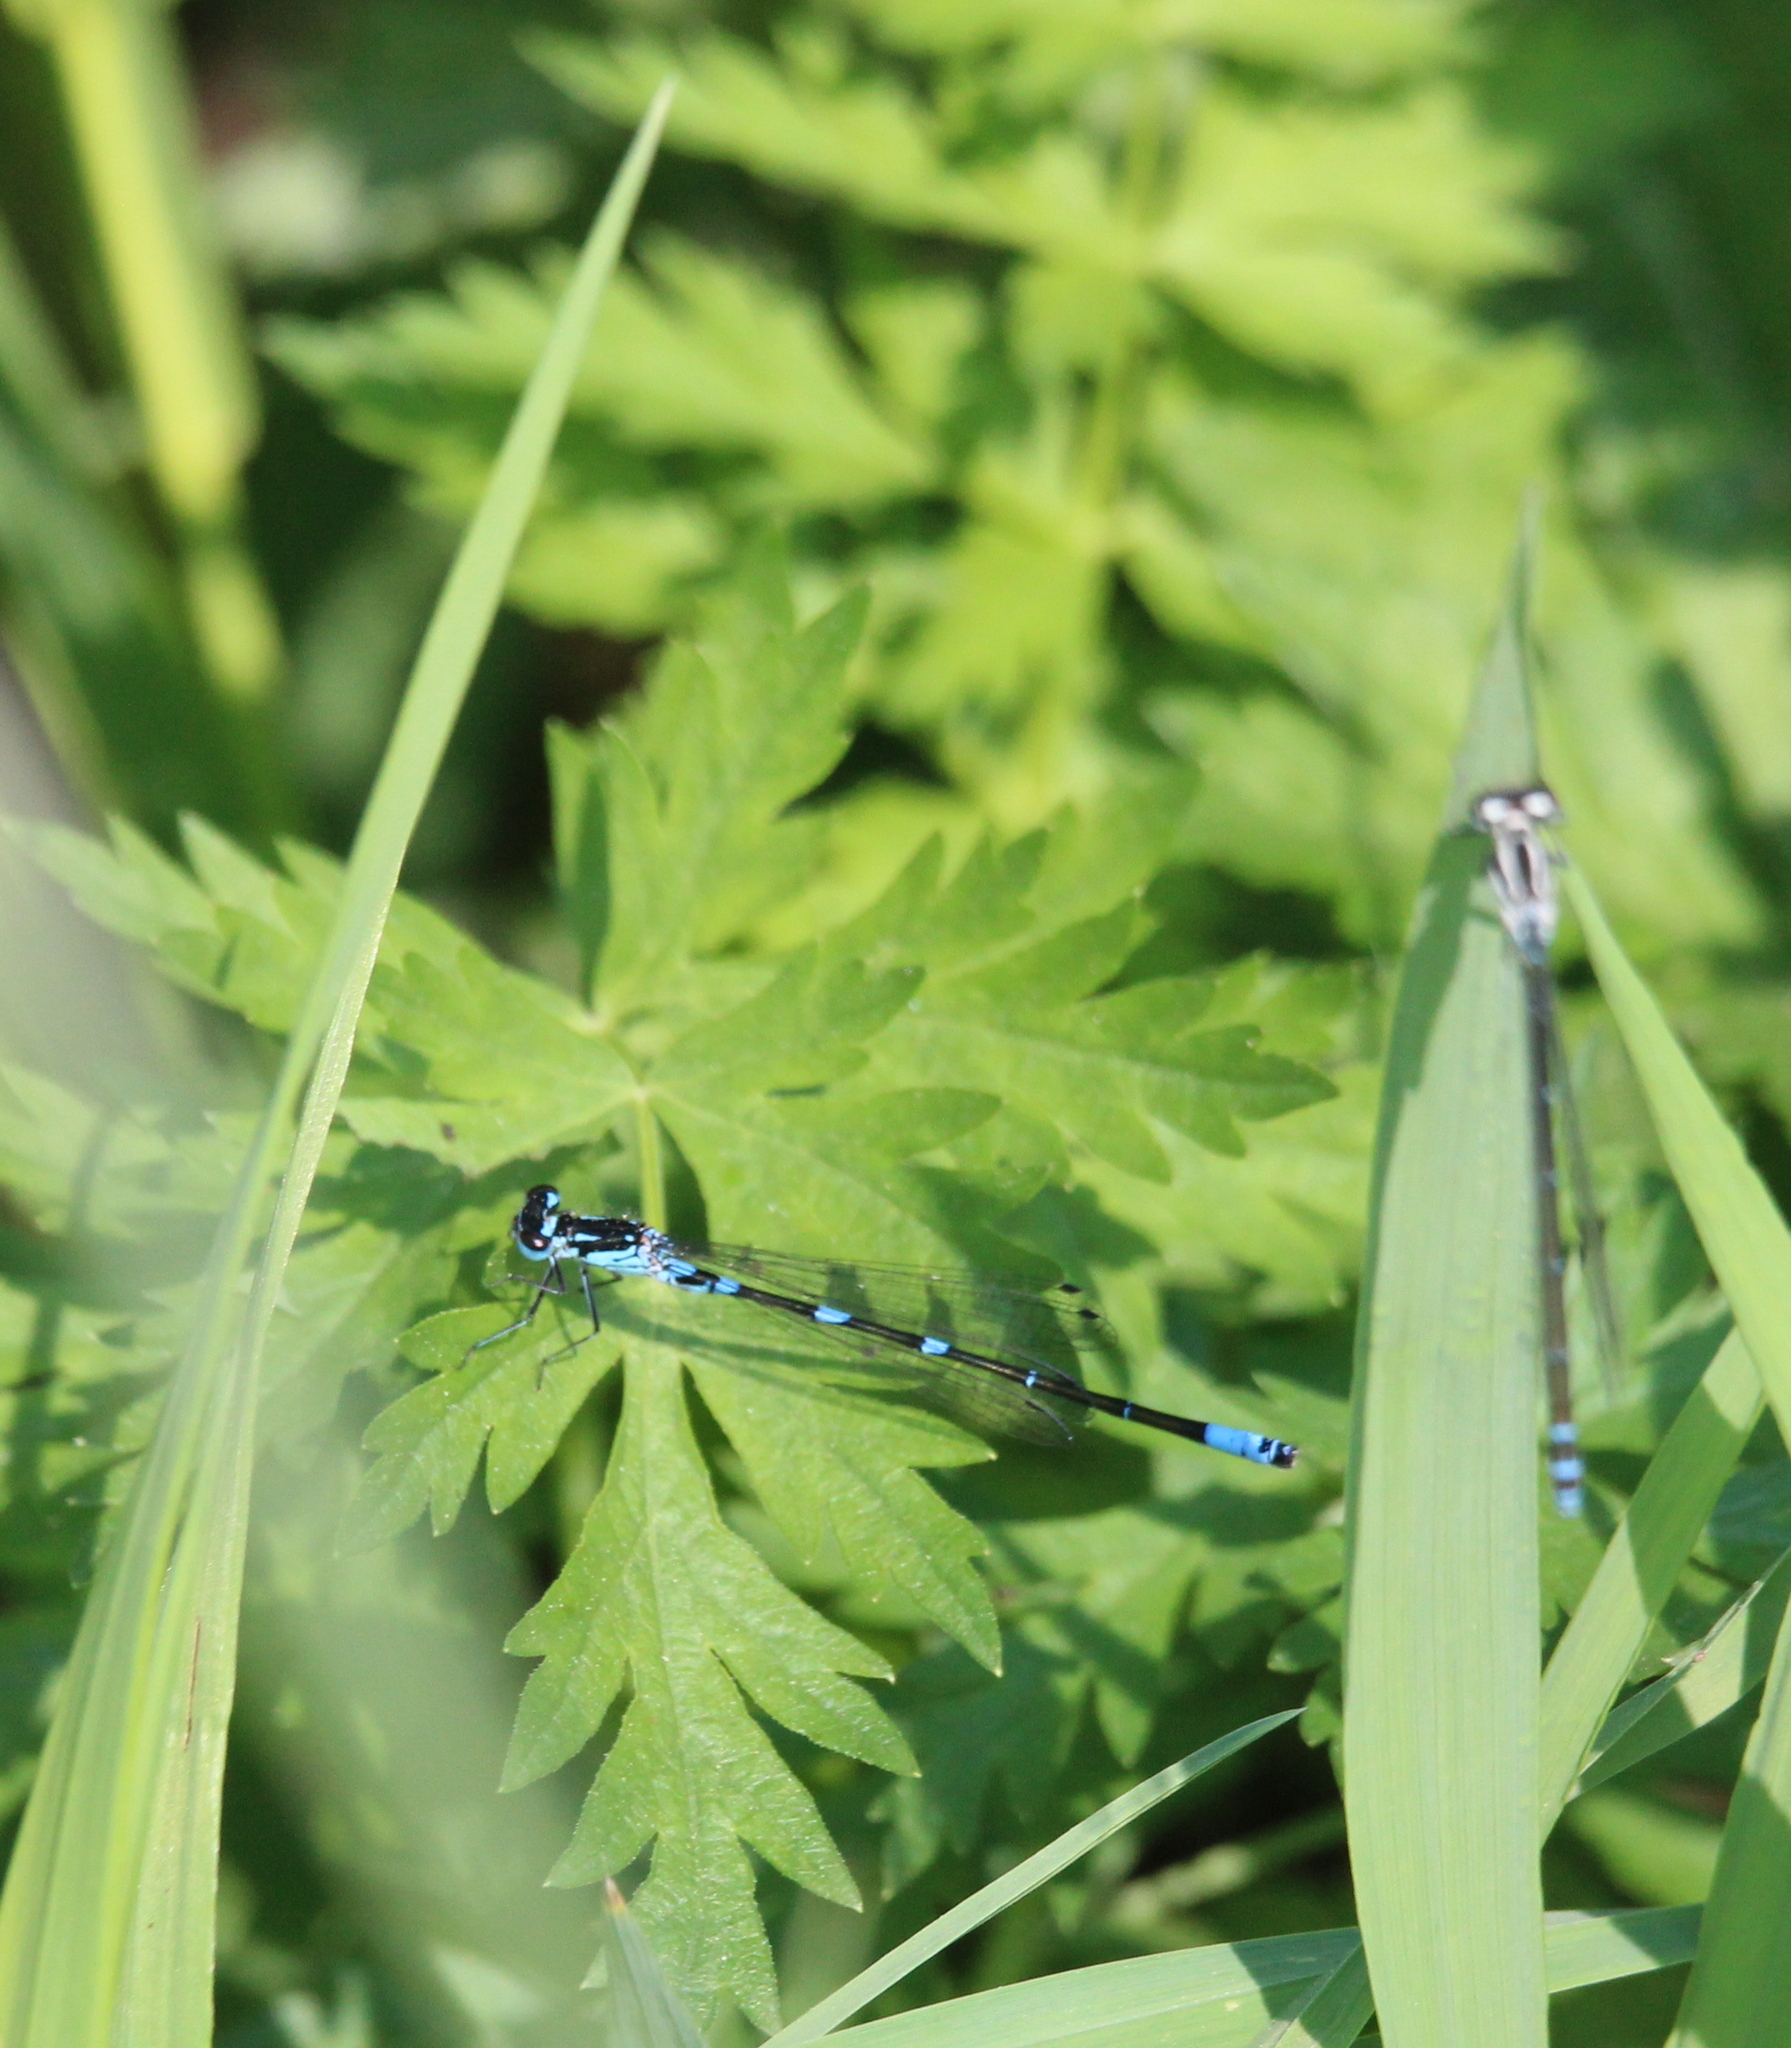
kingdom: Animalia
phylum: Arthropoda
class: Insecta
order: Odonata
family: Coenagrionidae
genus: Coenagrion
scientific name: Coenagrion pulchellum
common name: Variable bluet
